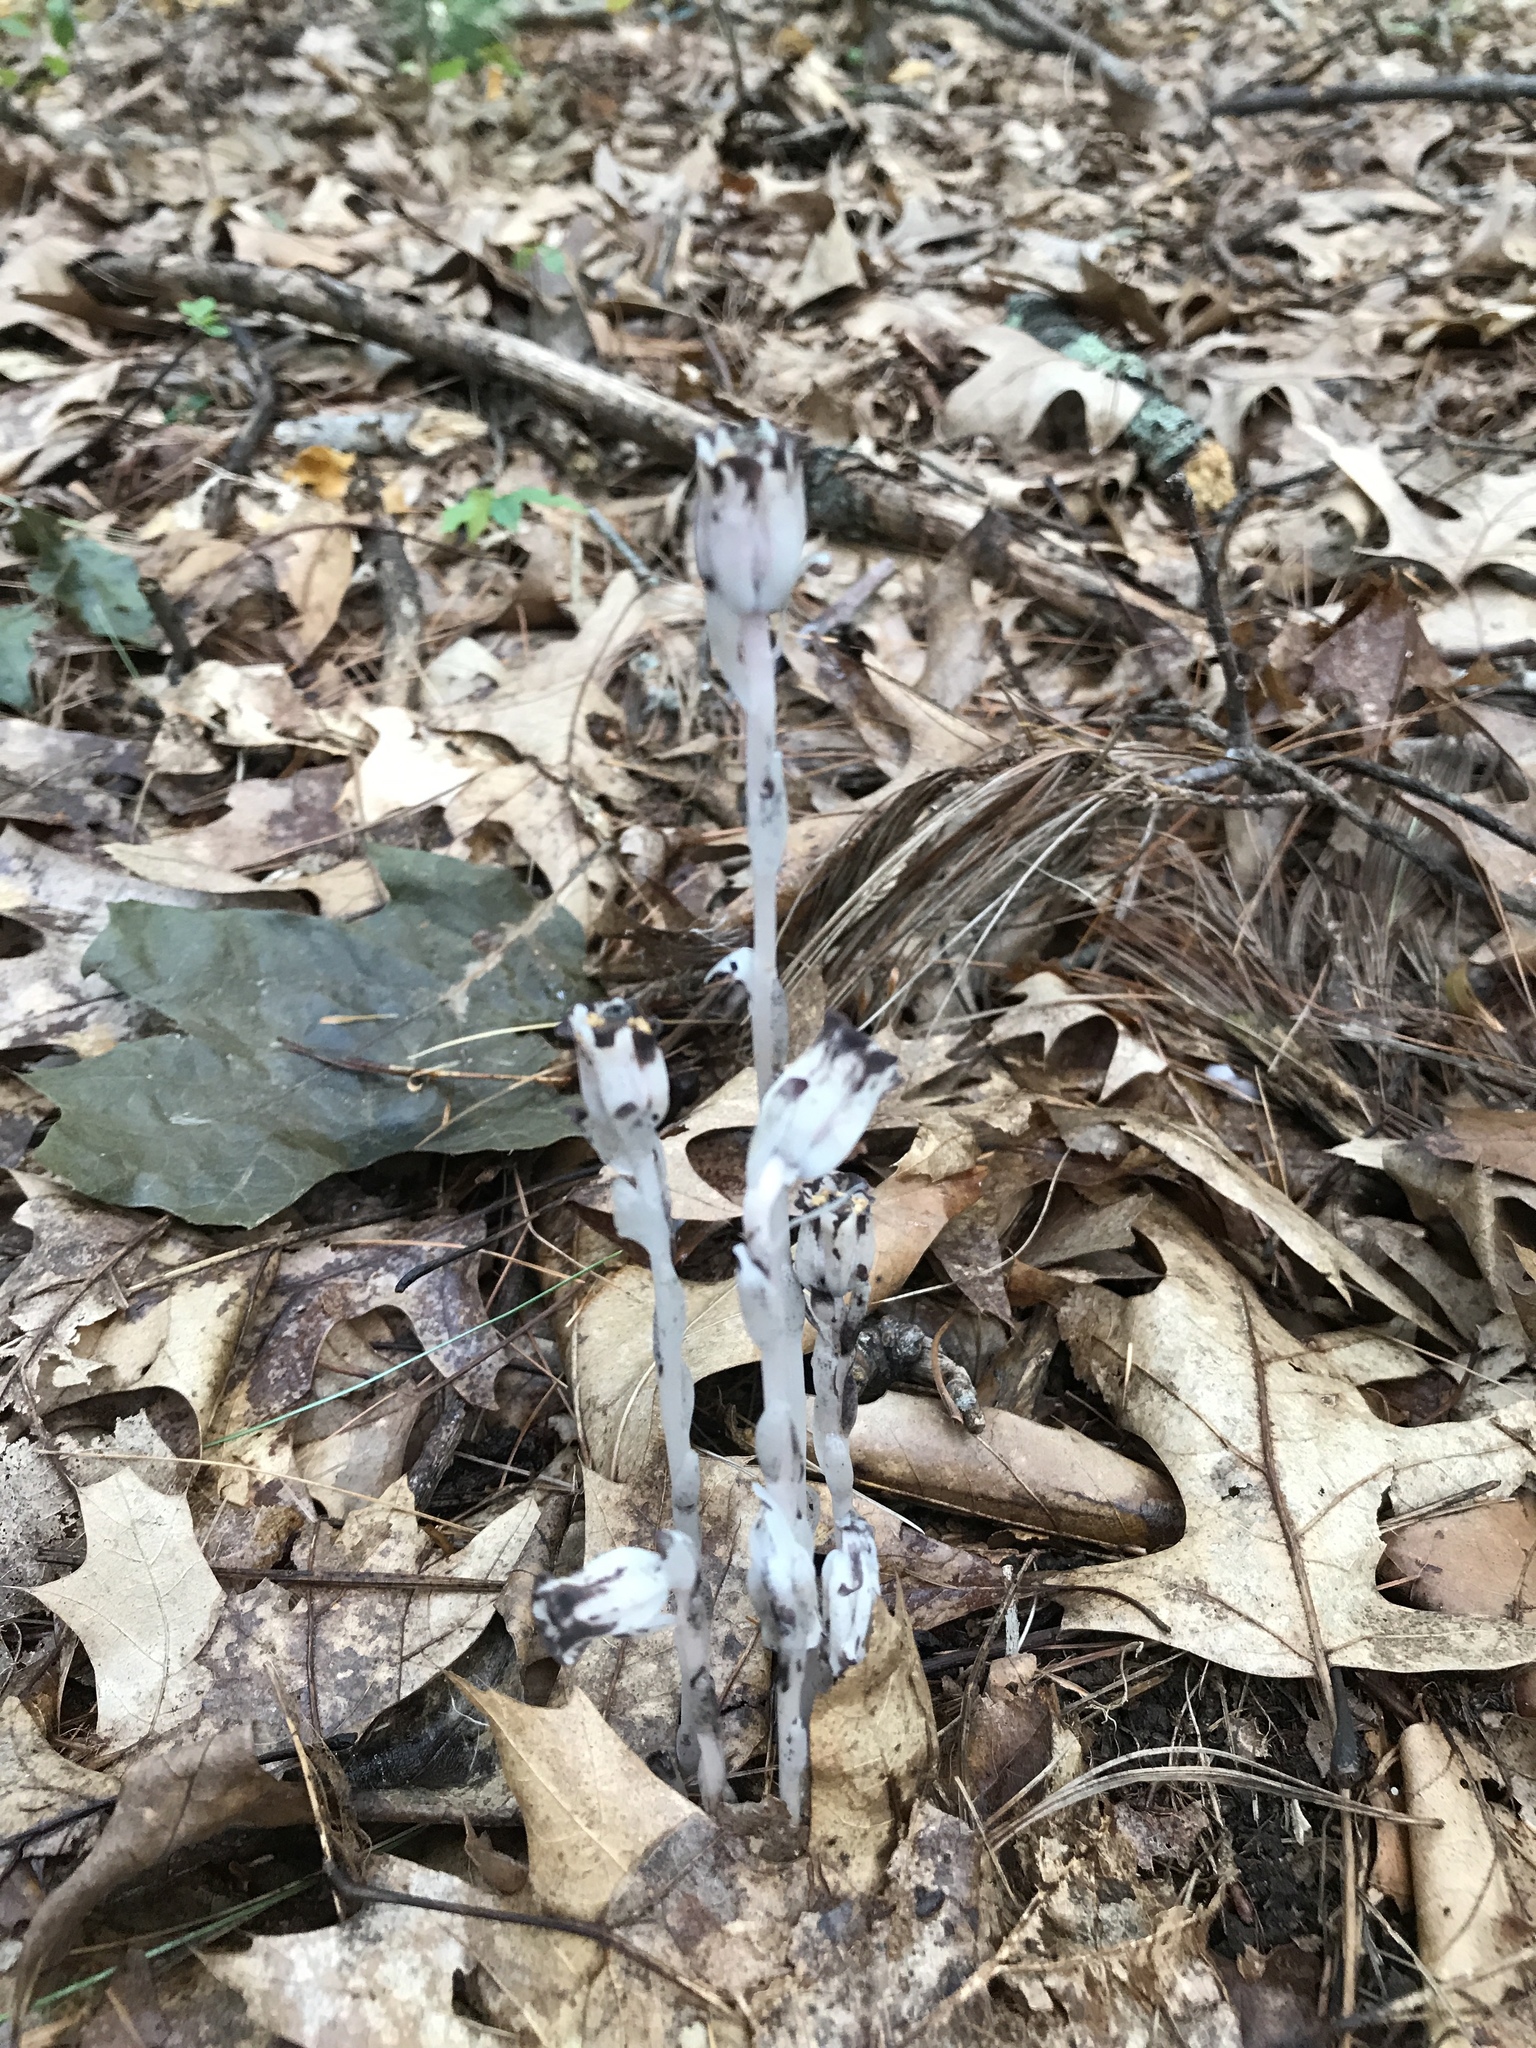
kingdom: Plantae
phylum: Tracheophyta
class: Magnoliopsida
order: Ericales
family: Ericaceae
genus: Monotropa
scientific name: Monotropa uniflora
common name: Convulsion root
